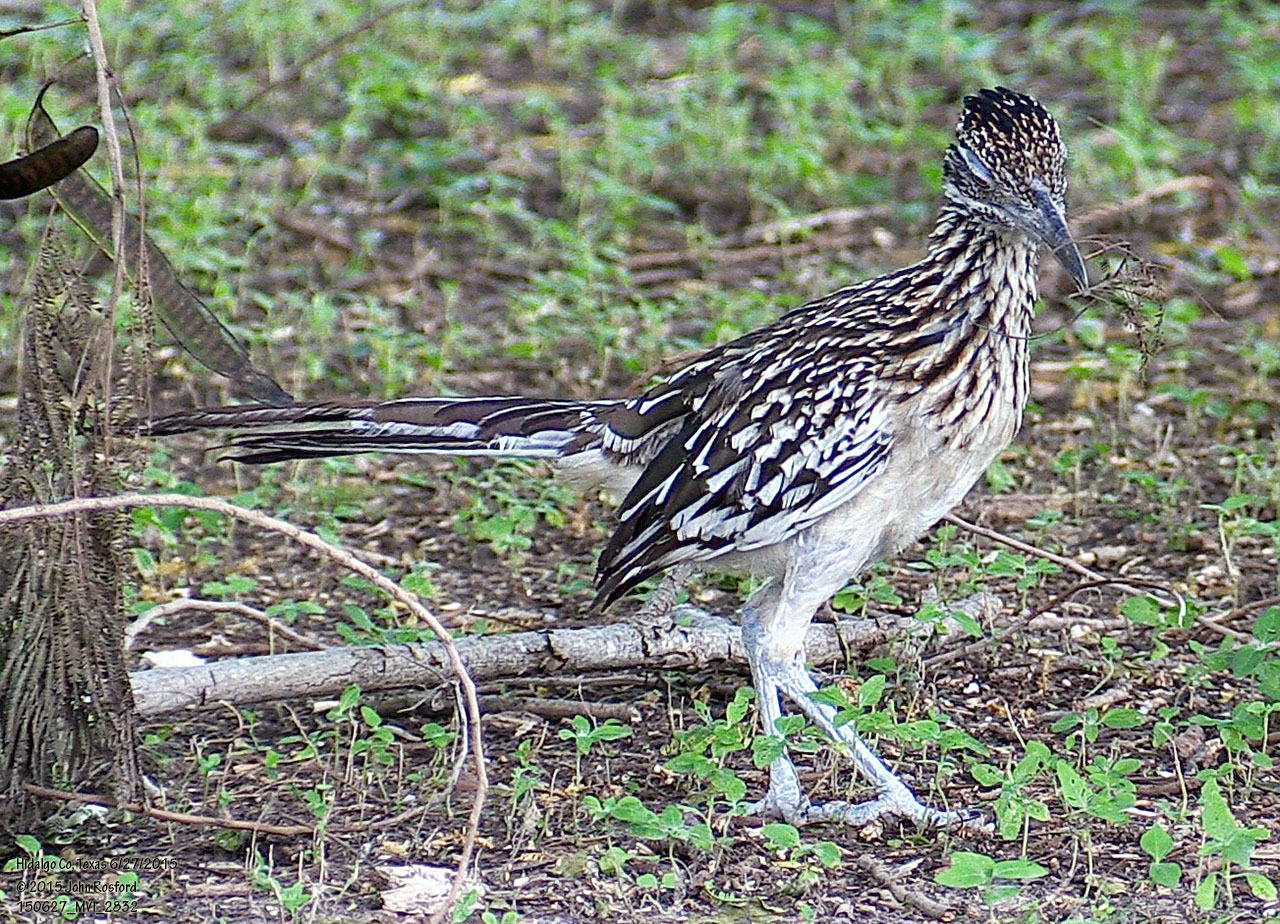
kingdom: Animalia
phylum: Chordata
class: Aves
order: Cuculiformes
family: Cuculidae
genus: Geococcyx
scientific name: Geococcyx californianus
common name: Greater roadrunner
